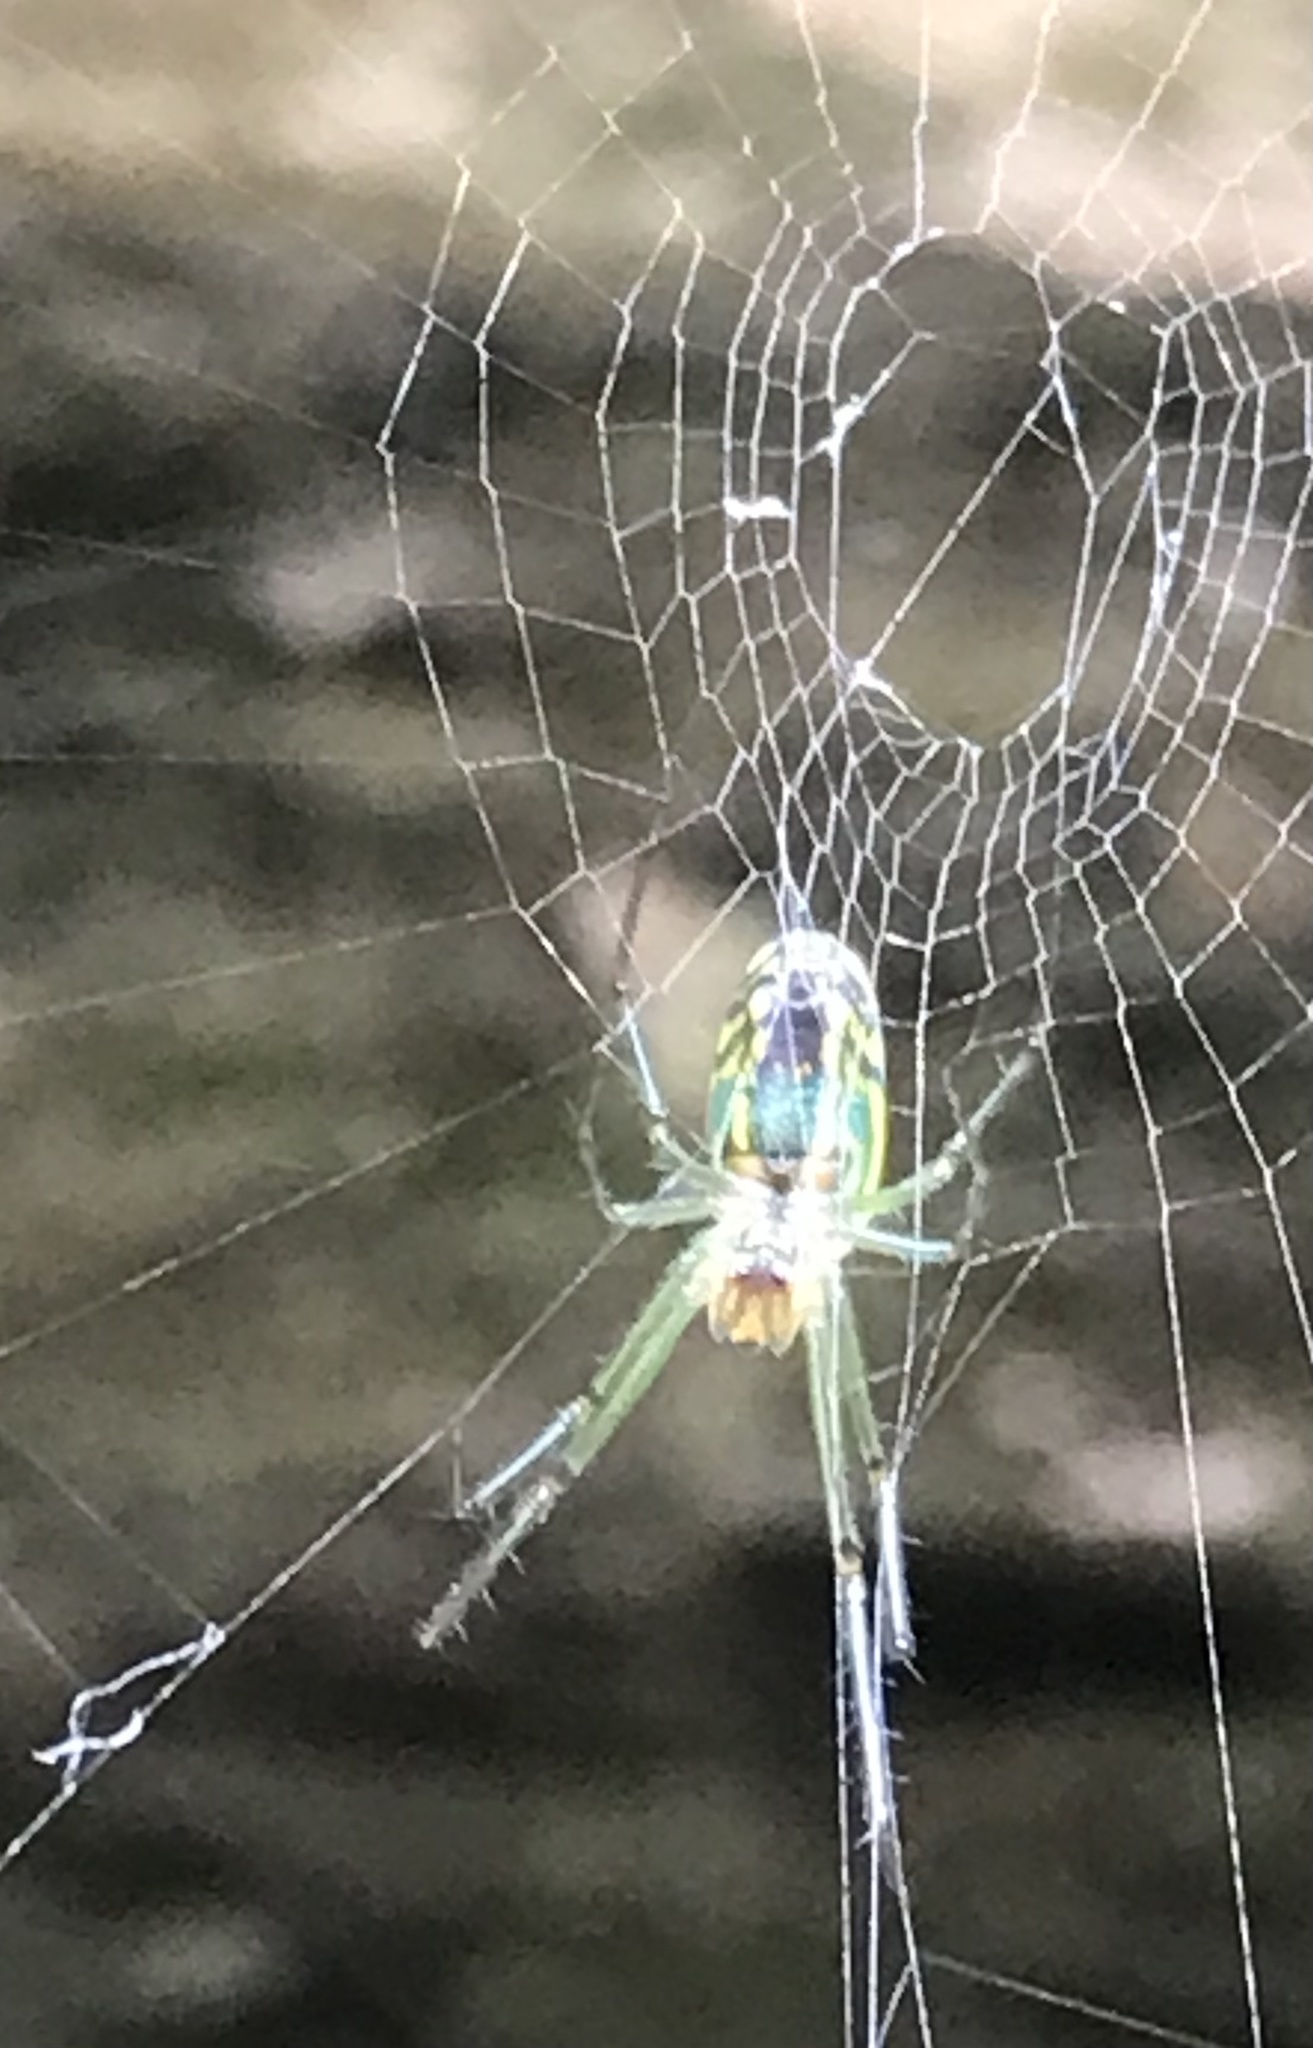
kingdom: Animalia
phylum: Arthropoda
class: Arachnida
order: Araneae
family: Tetragnathidae
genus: Leucauge
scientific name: Leucauge venusta
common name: Longjawed orb weavers
